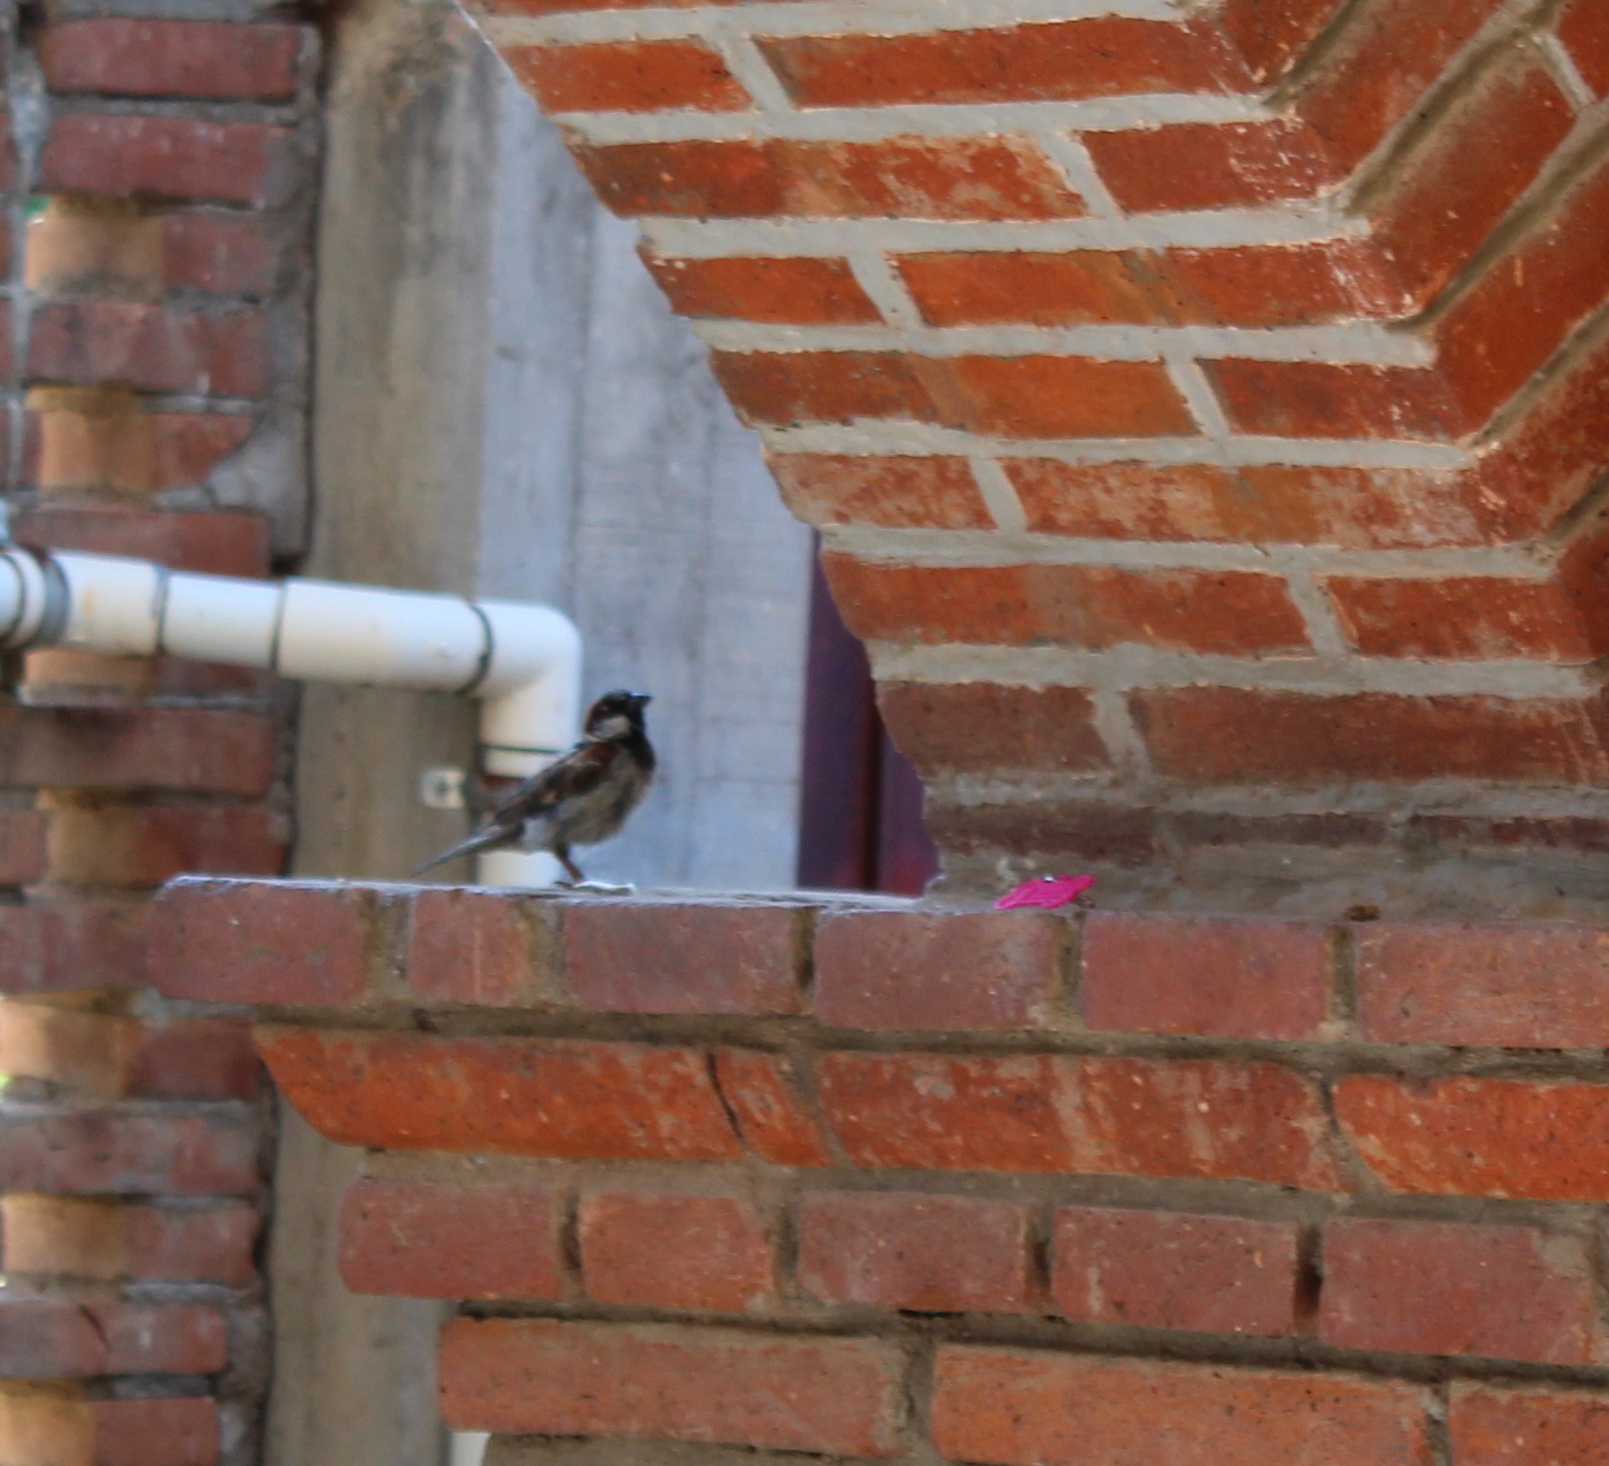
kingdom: Animalia
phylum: Chordata
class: Aves
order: Passeriformes
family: Passeridae
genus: Passer
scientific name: Passer domesticus
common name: House sparrow
